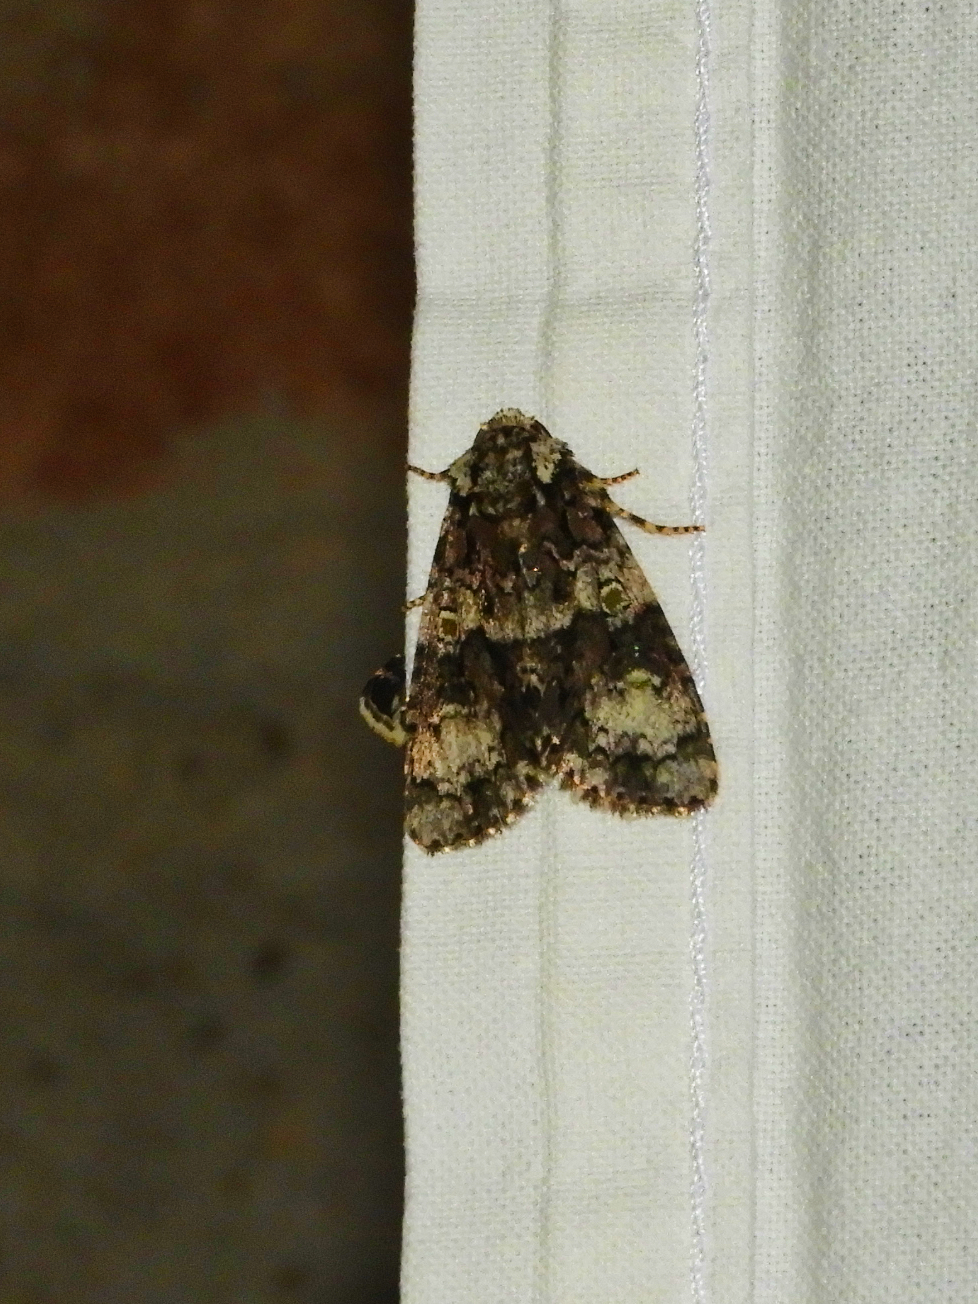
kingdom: Animalia
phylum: Arthropoda
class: Insecta
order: Lepidoptera
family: Noctuidae
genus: Craniophora
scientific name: Craniophora ligustri
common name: Coronet
